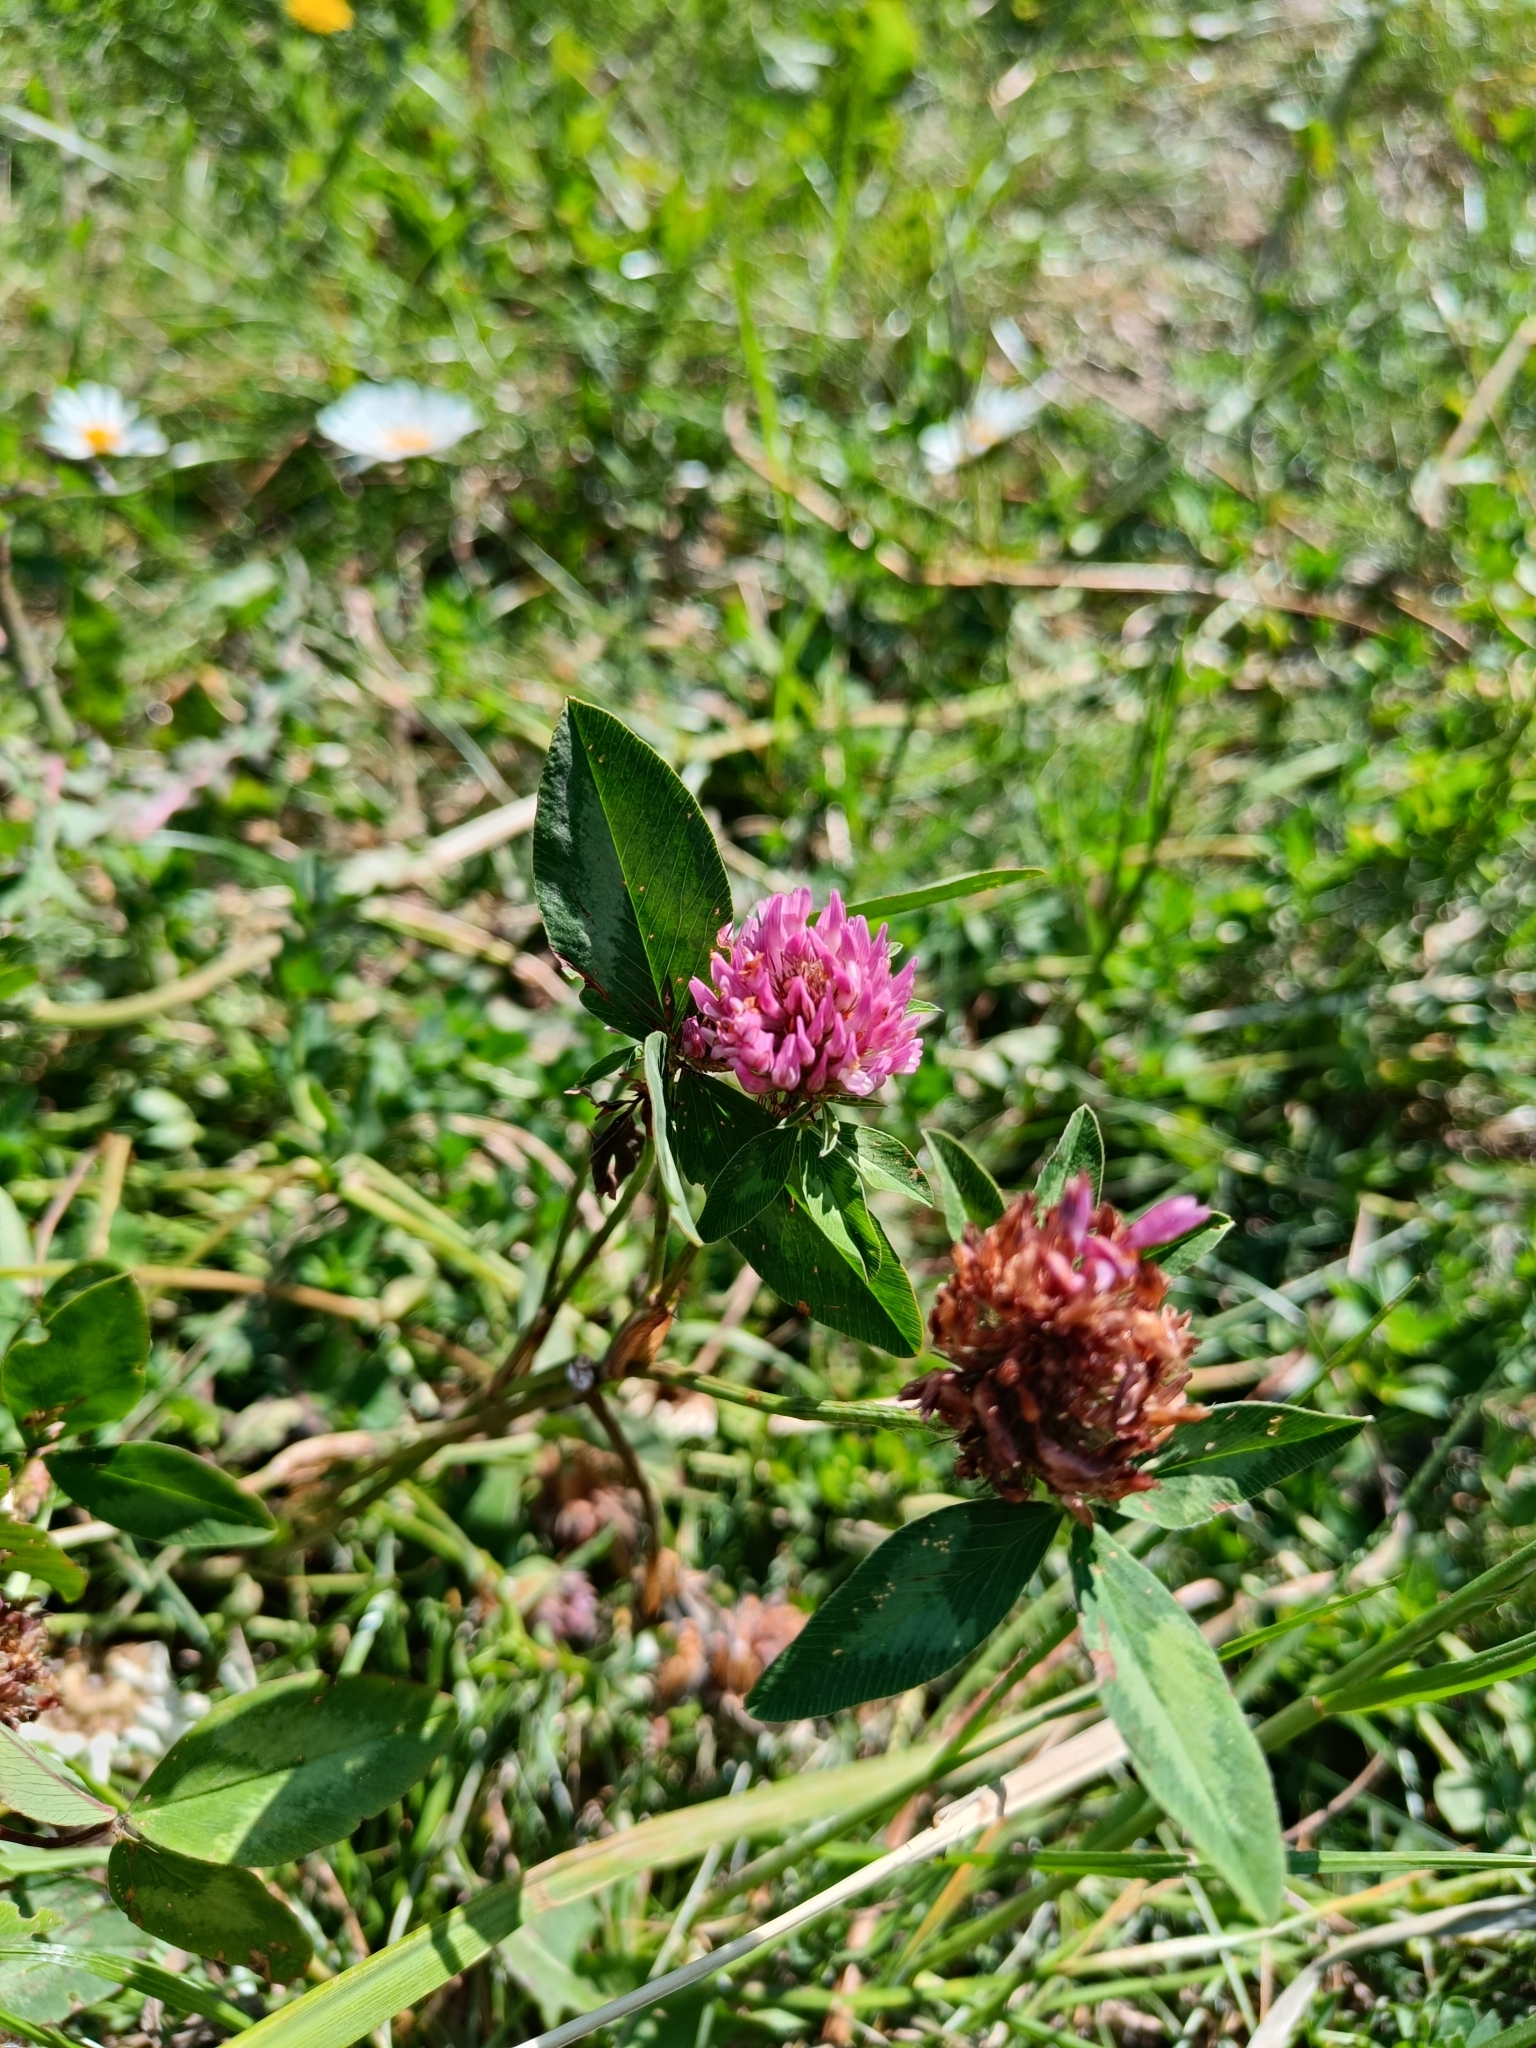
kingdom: Plantae
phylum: Tracheophyta
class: Magnoliopsida
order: Fabales
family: Fabaceae
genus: Trifolium
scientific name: Trifolium pratense
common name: Red clover
